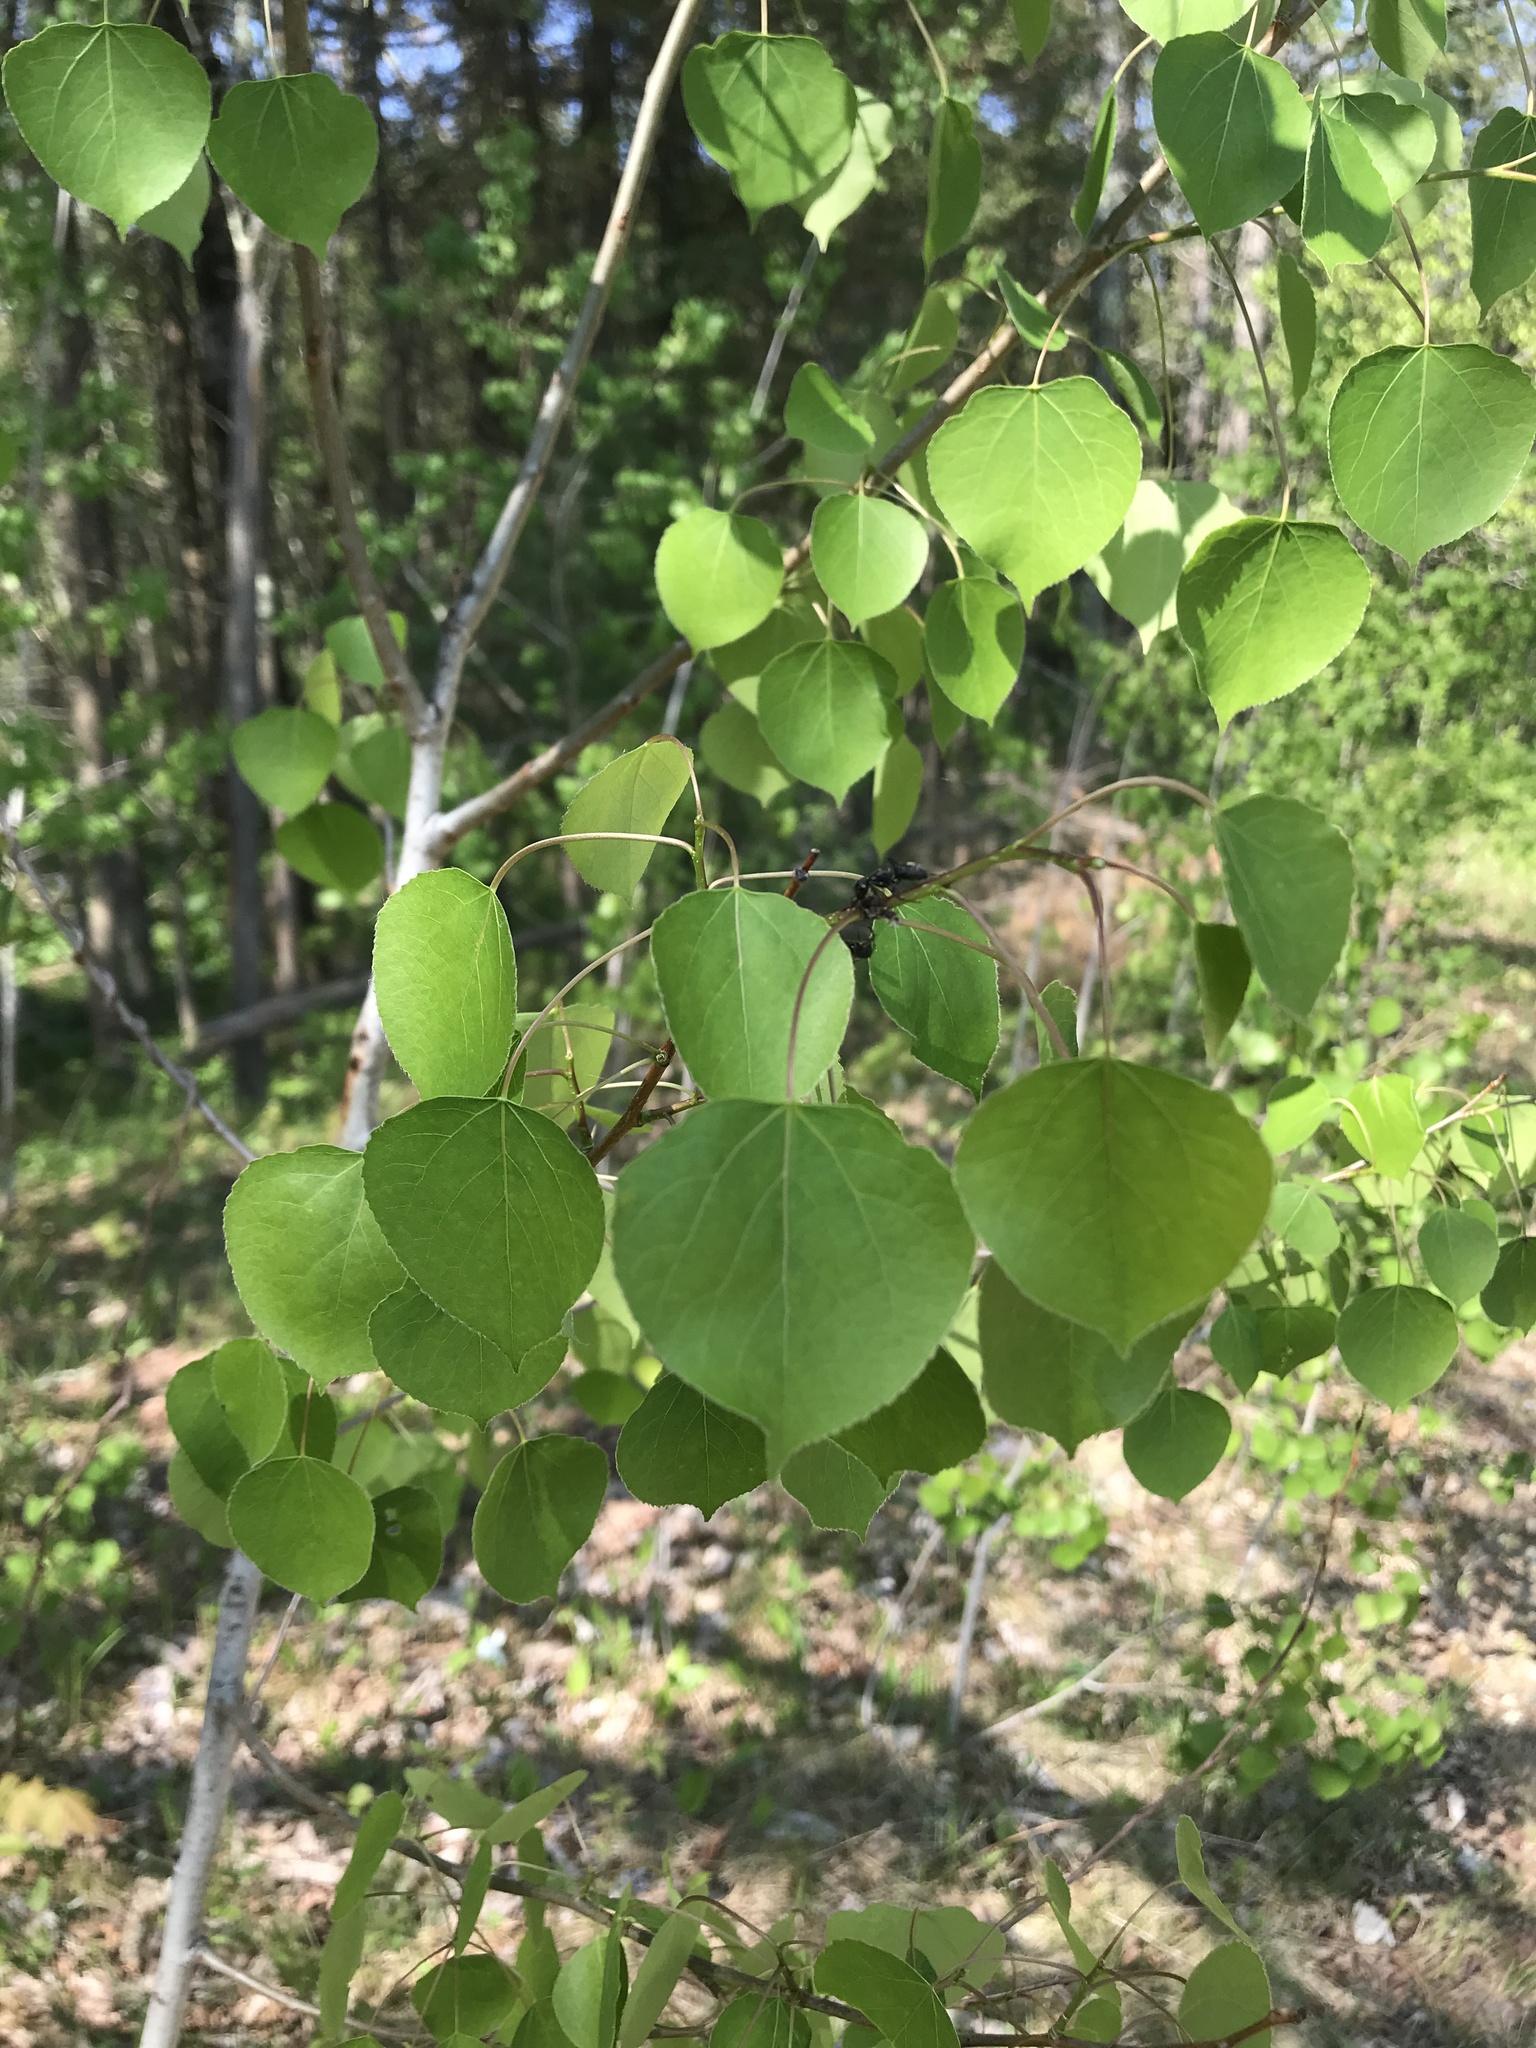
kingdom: Plantae
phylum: Tracheophyta
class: Magnoliopsida
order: Malpighiales
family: Salicaceae
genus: Populus
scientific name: Populus tremuloides
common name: Quaking aspen
